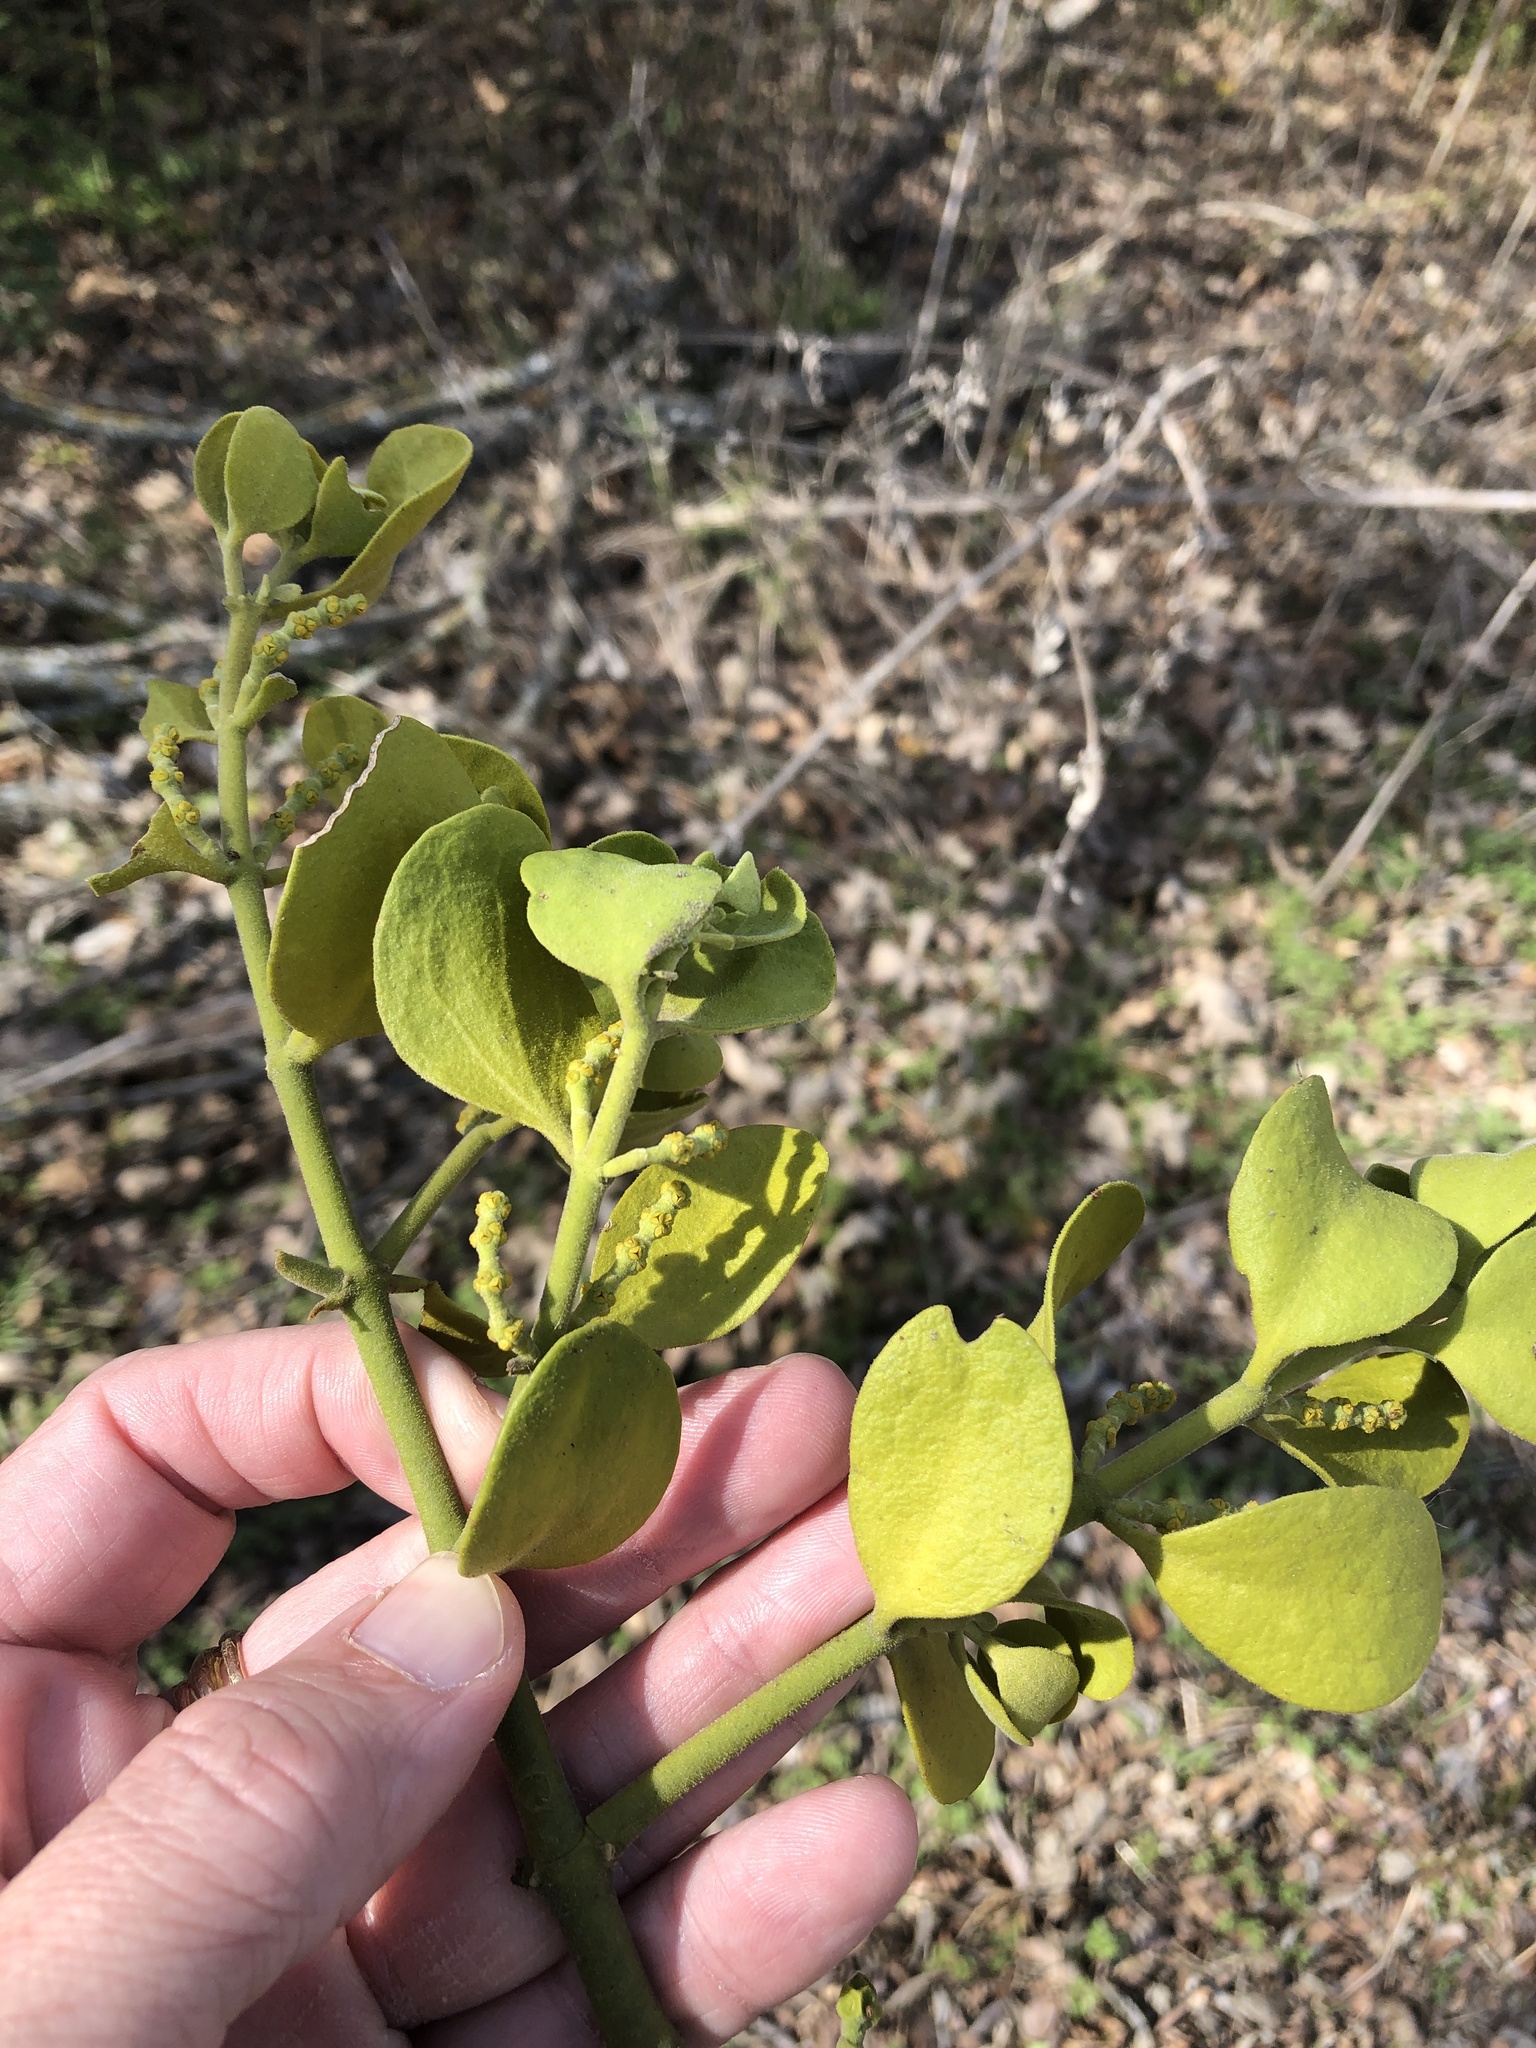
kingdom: Plantae
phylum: Tracheophyta
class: Magnoliopsida
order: Santalales
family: Viscaceae
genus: Phoradendron
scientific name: Phoradendron leucarpum
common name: Pacific mistletoe
